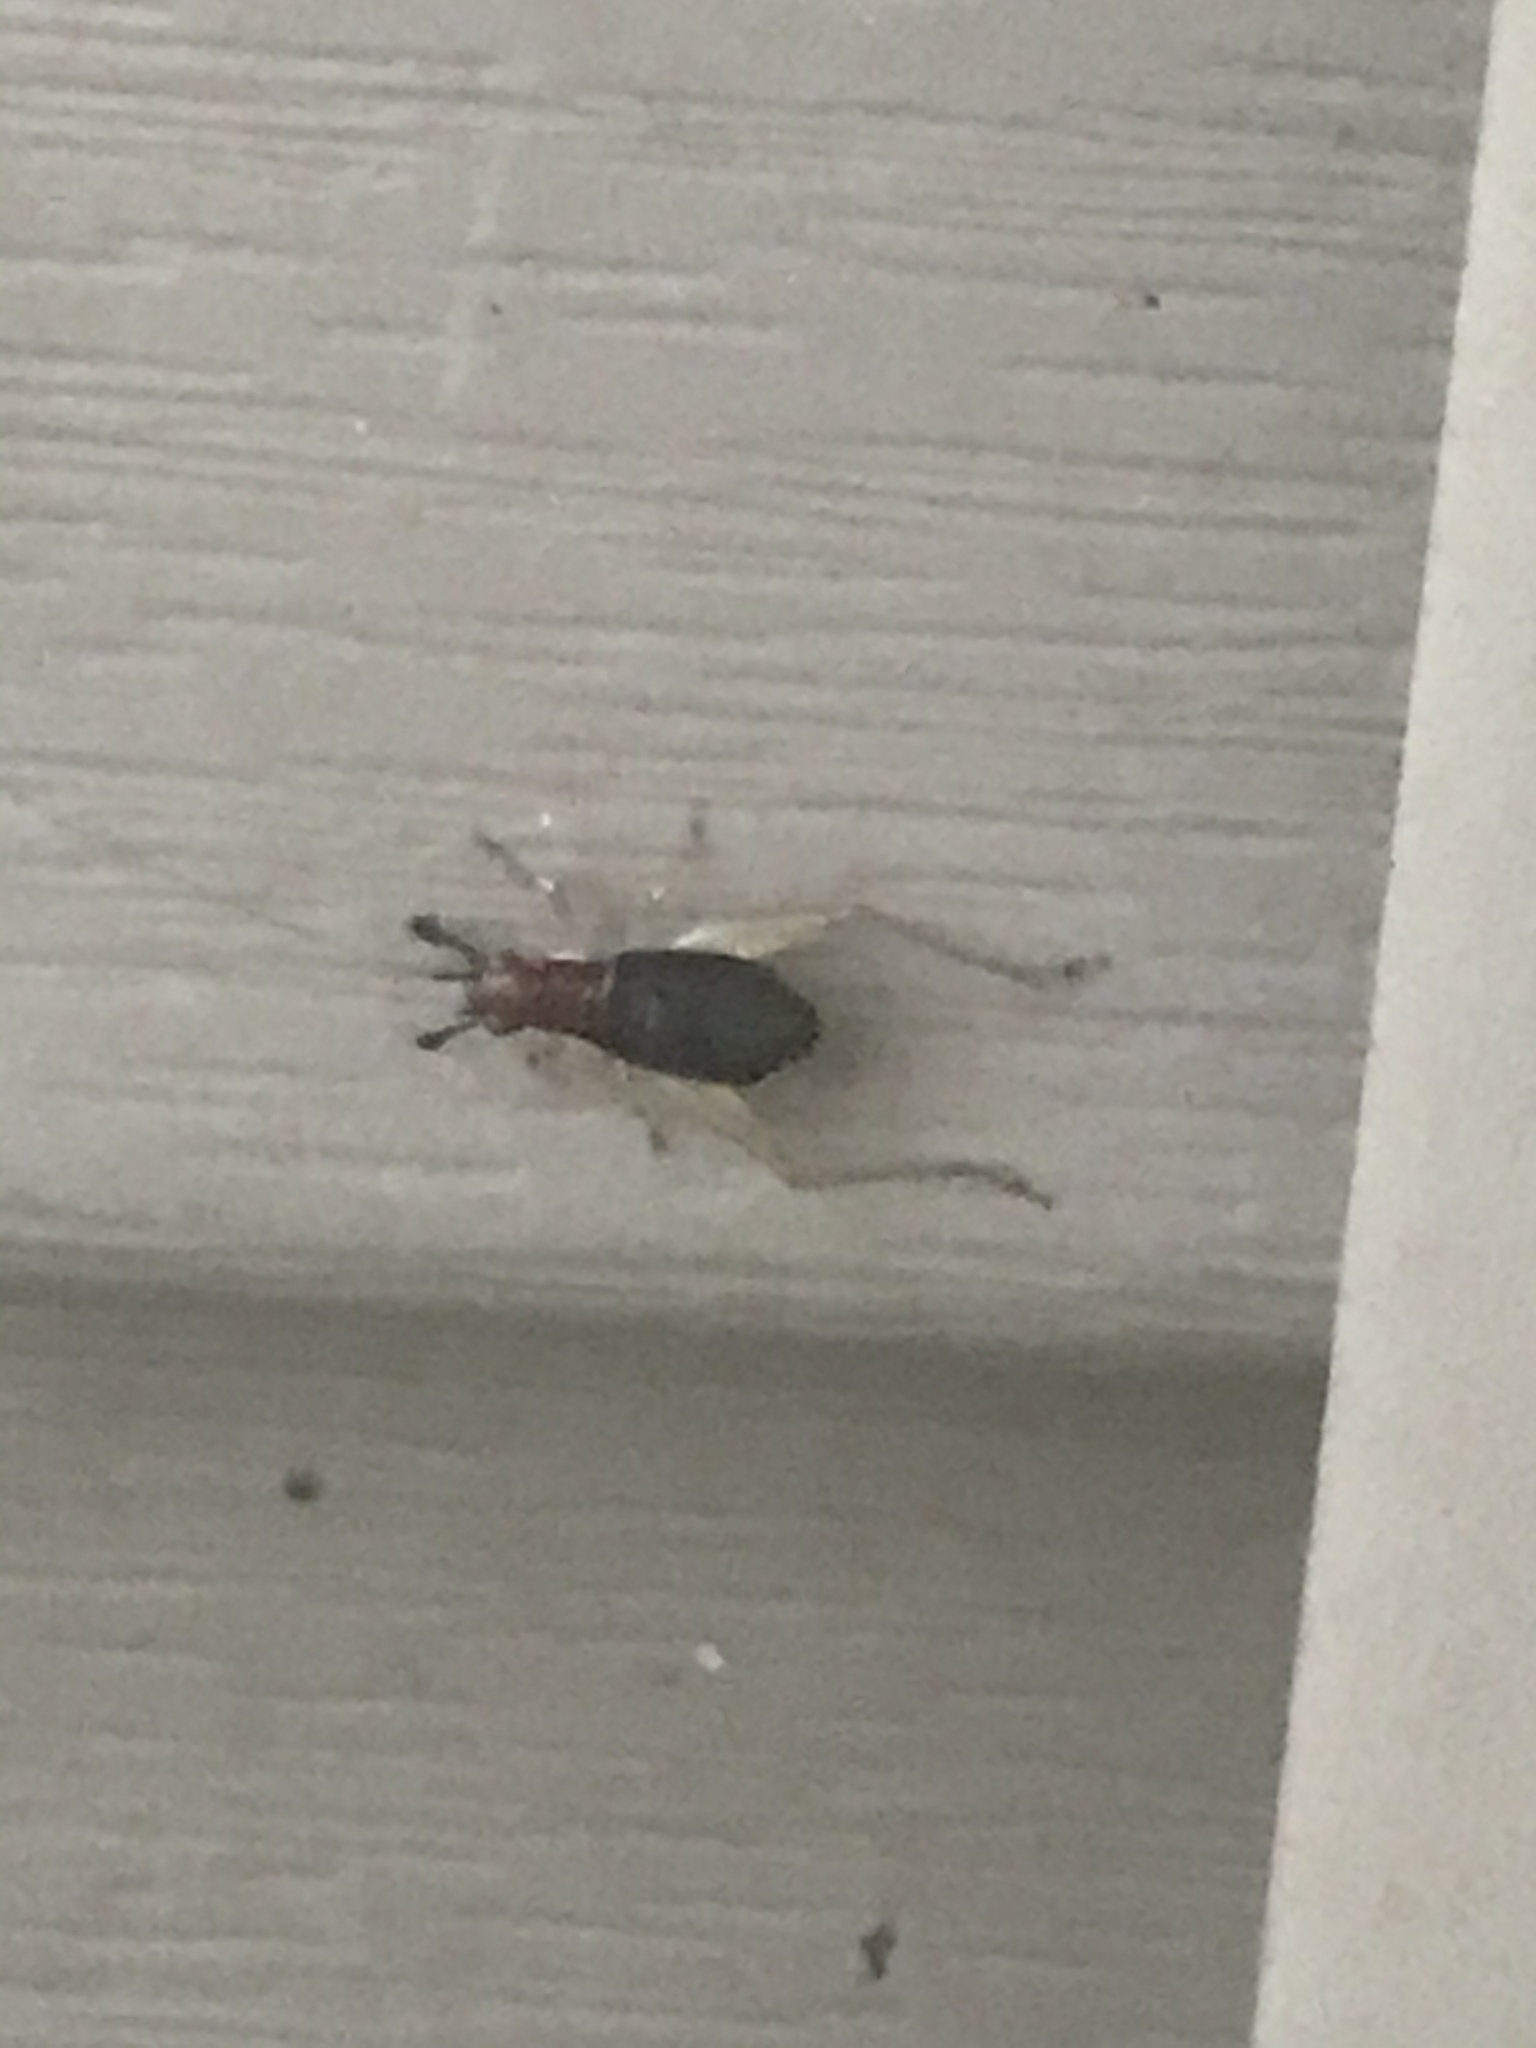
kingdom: Animalia
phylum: Arthropoda
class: Insecta
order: Orthoptera
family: Trigonidiidae
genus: Phyllopalpus
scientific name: Phyllopalpus pulchellus
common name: Handsome trig
